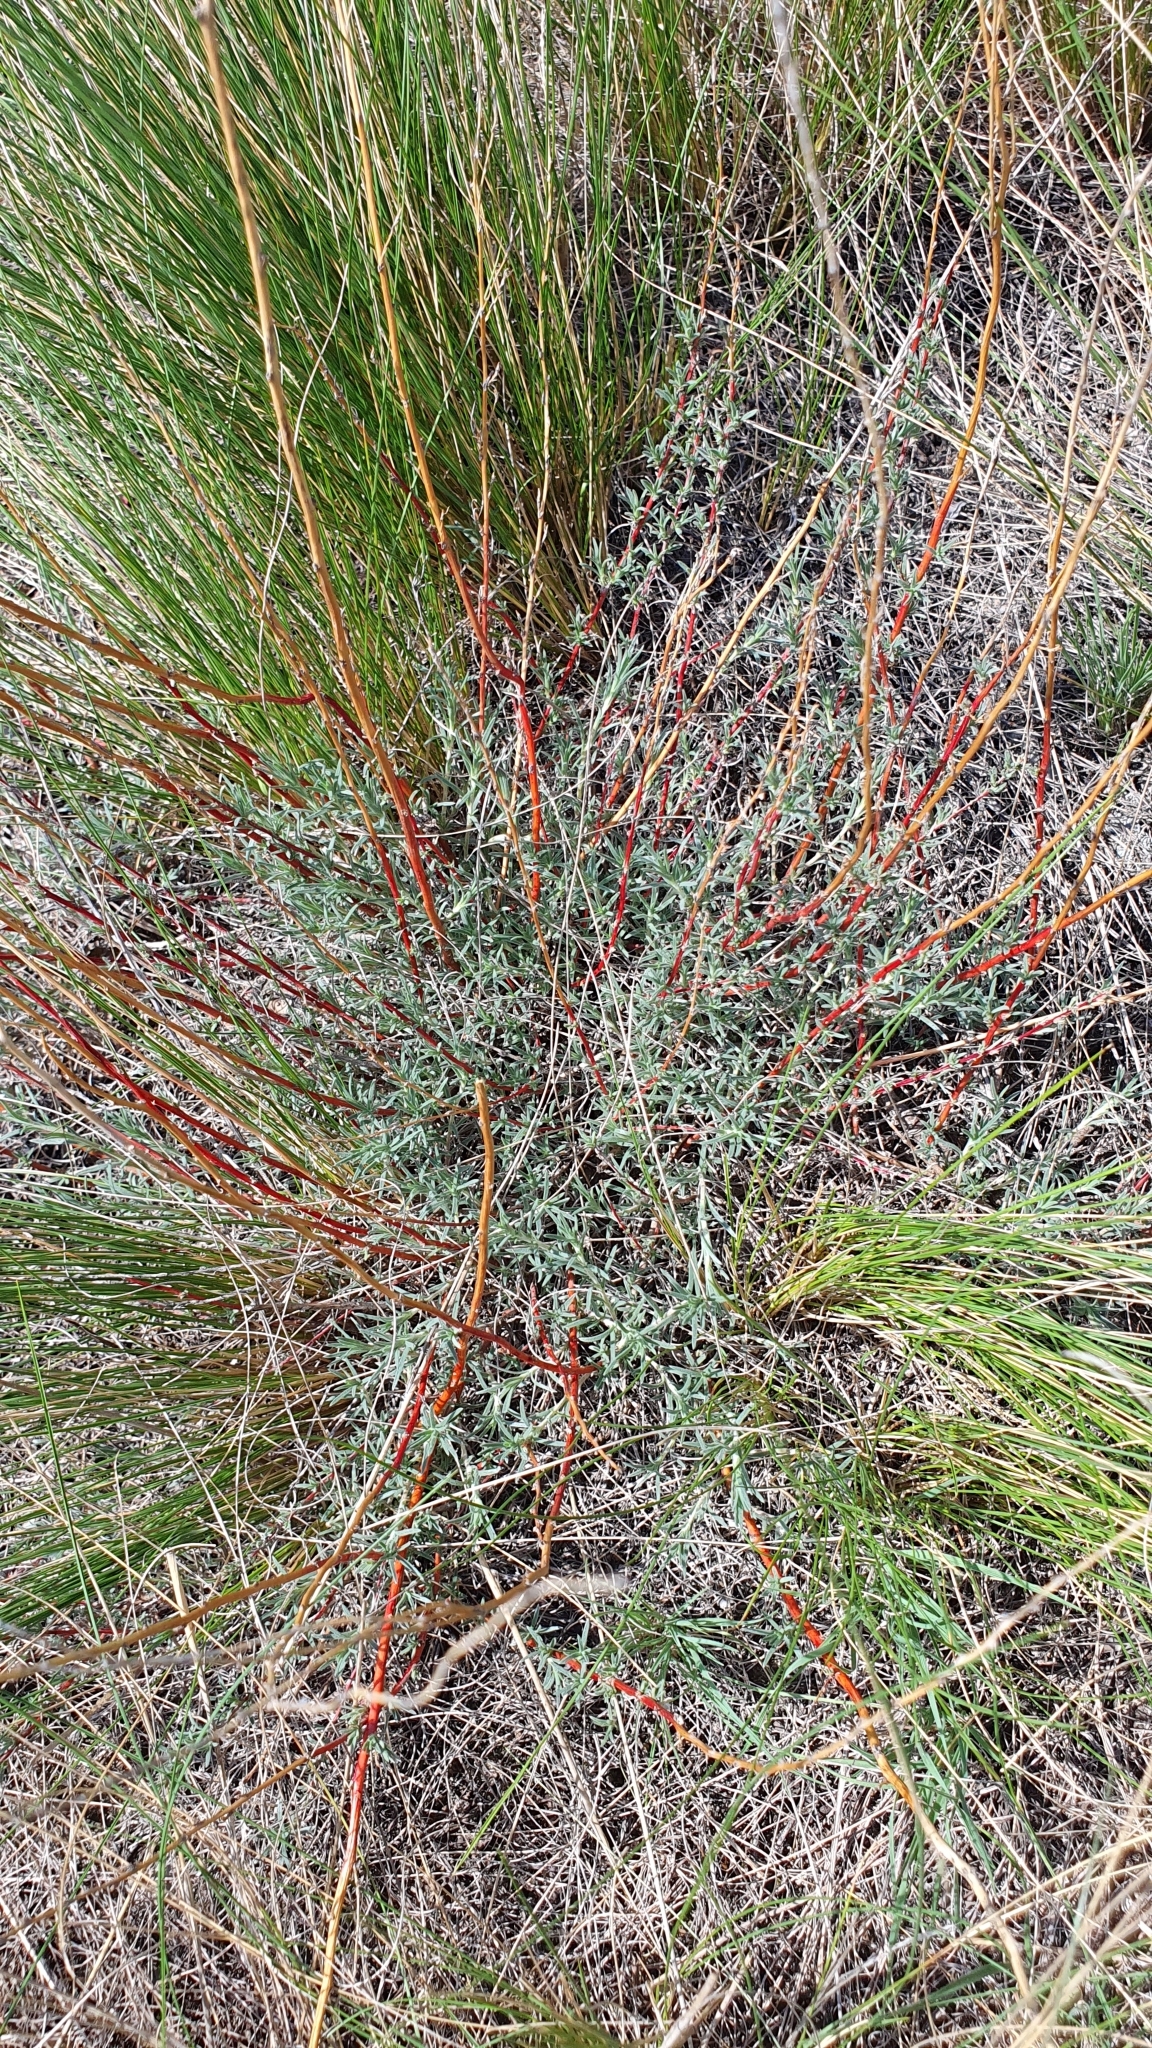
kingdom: Plantae
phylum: Tracheophyta
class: Magnoliopsida
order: Caryophyllales
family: Amaranthaceae
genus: Bassia
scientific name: Bassia prostrata
